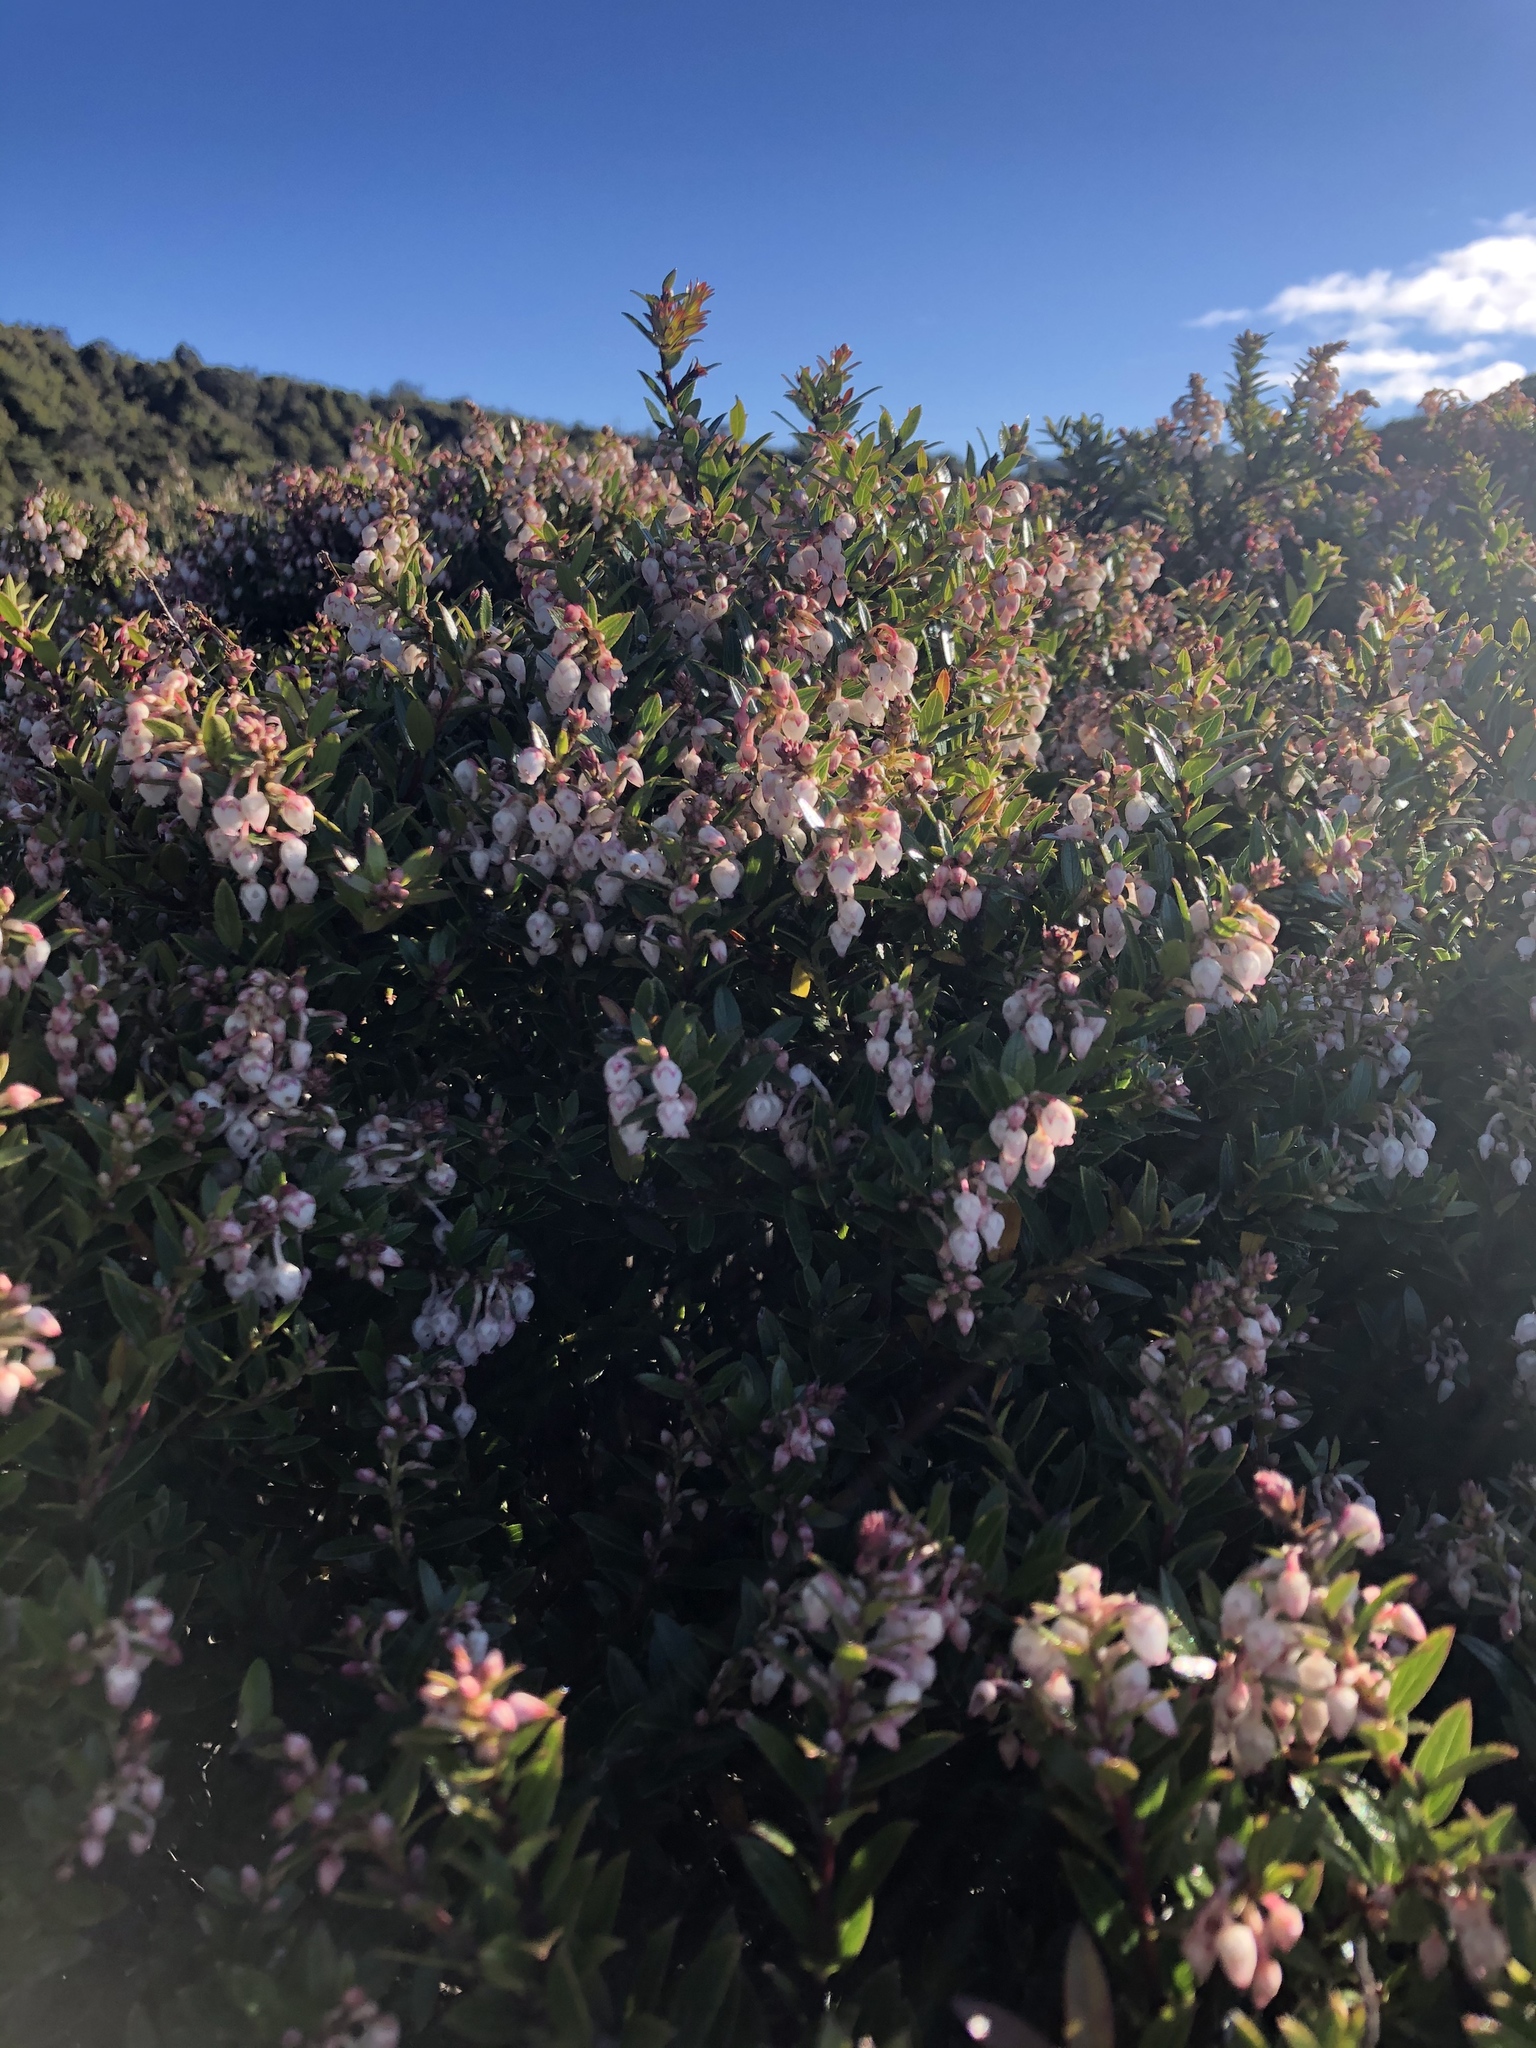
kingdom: Plantae
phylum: Tracheophyta
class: Magnoliopsida
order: Ericales
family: Ericaceae
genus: Gaultheria
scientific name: Gaultheria myrsinoides
